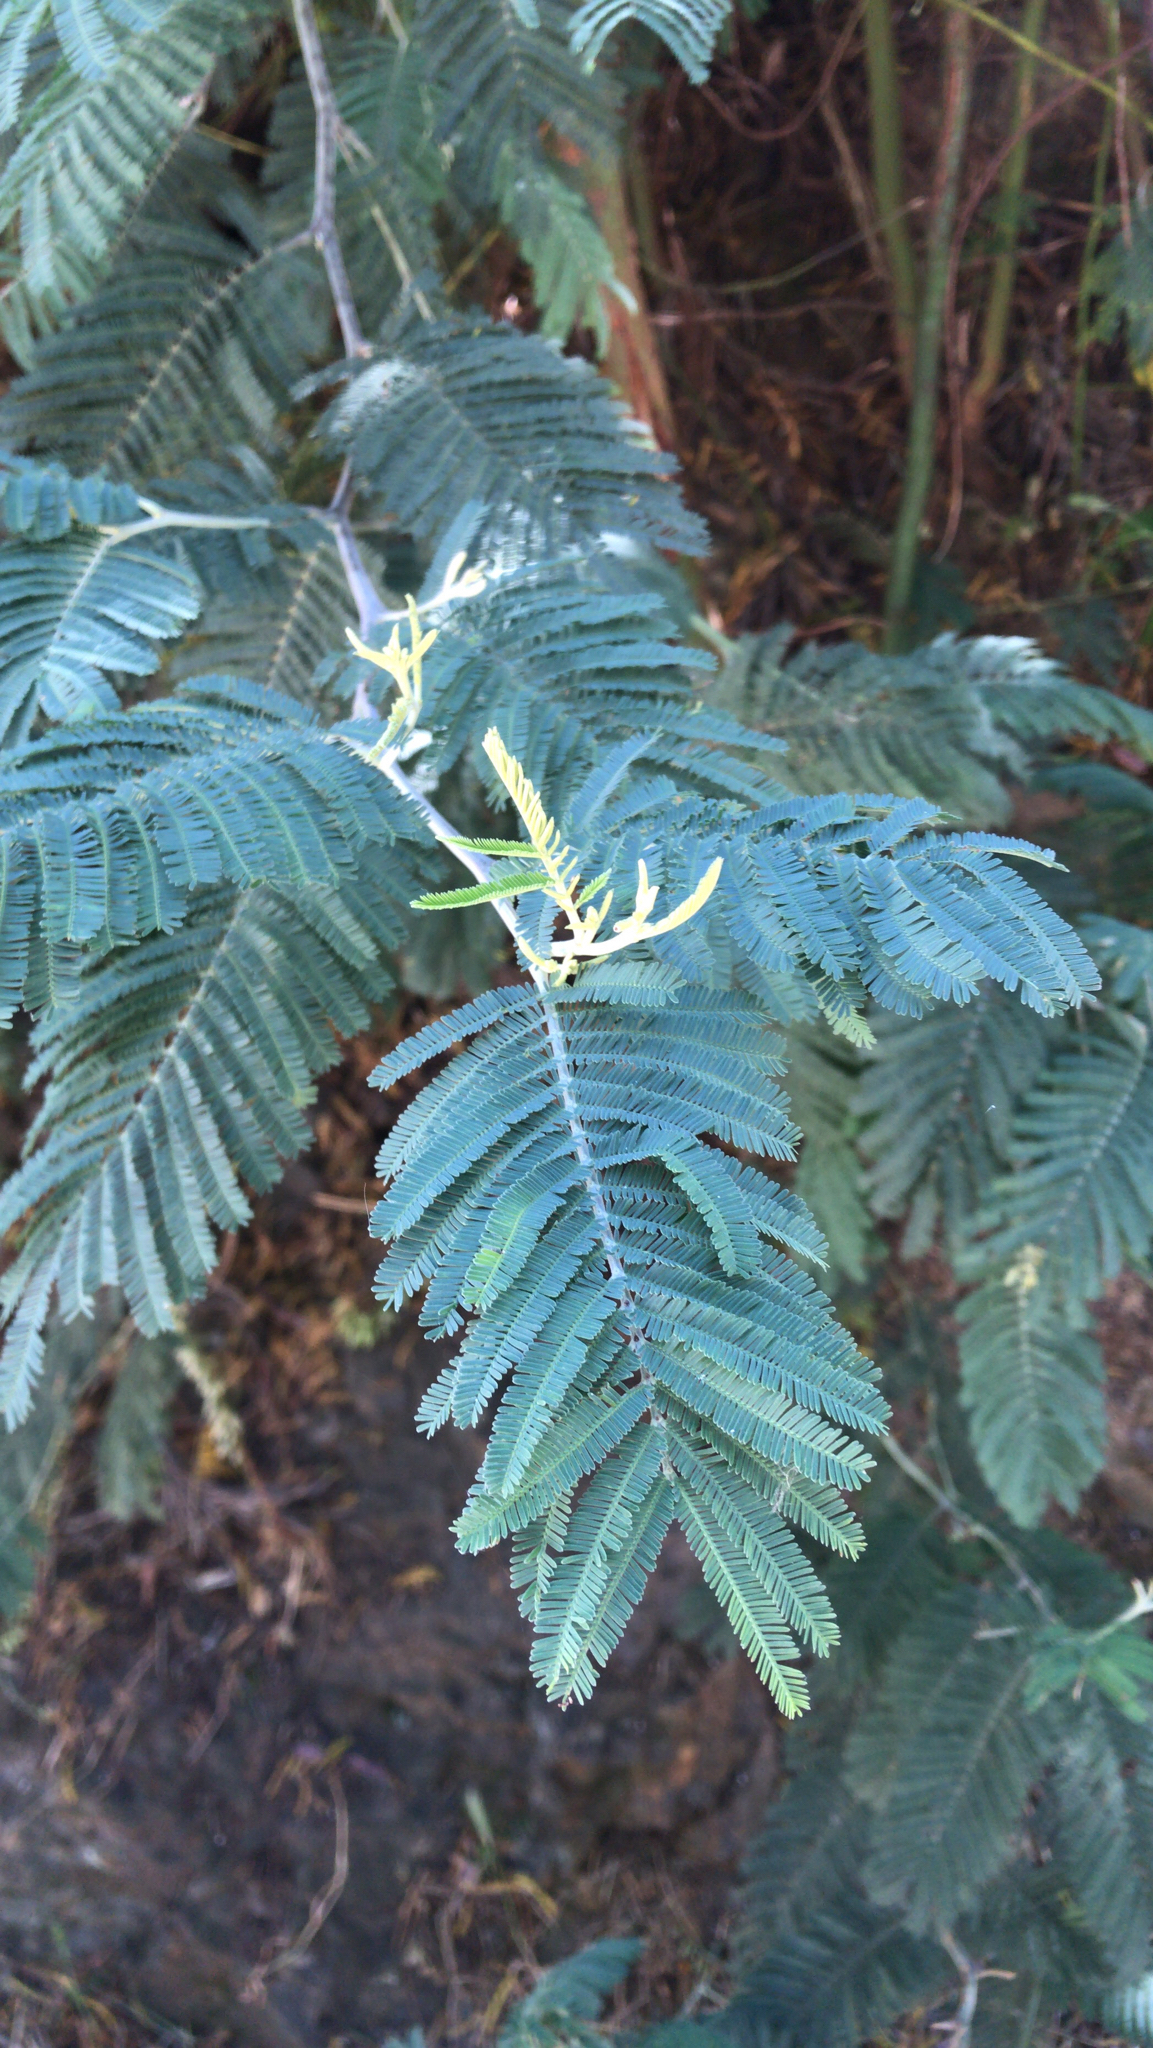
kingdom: Plantae
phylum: Tracheophyta
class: Magnoliopsida
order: Fabales
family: Fabaceae
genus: Acacia
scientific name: Acacia dealbata
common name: Silver wattle
